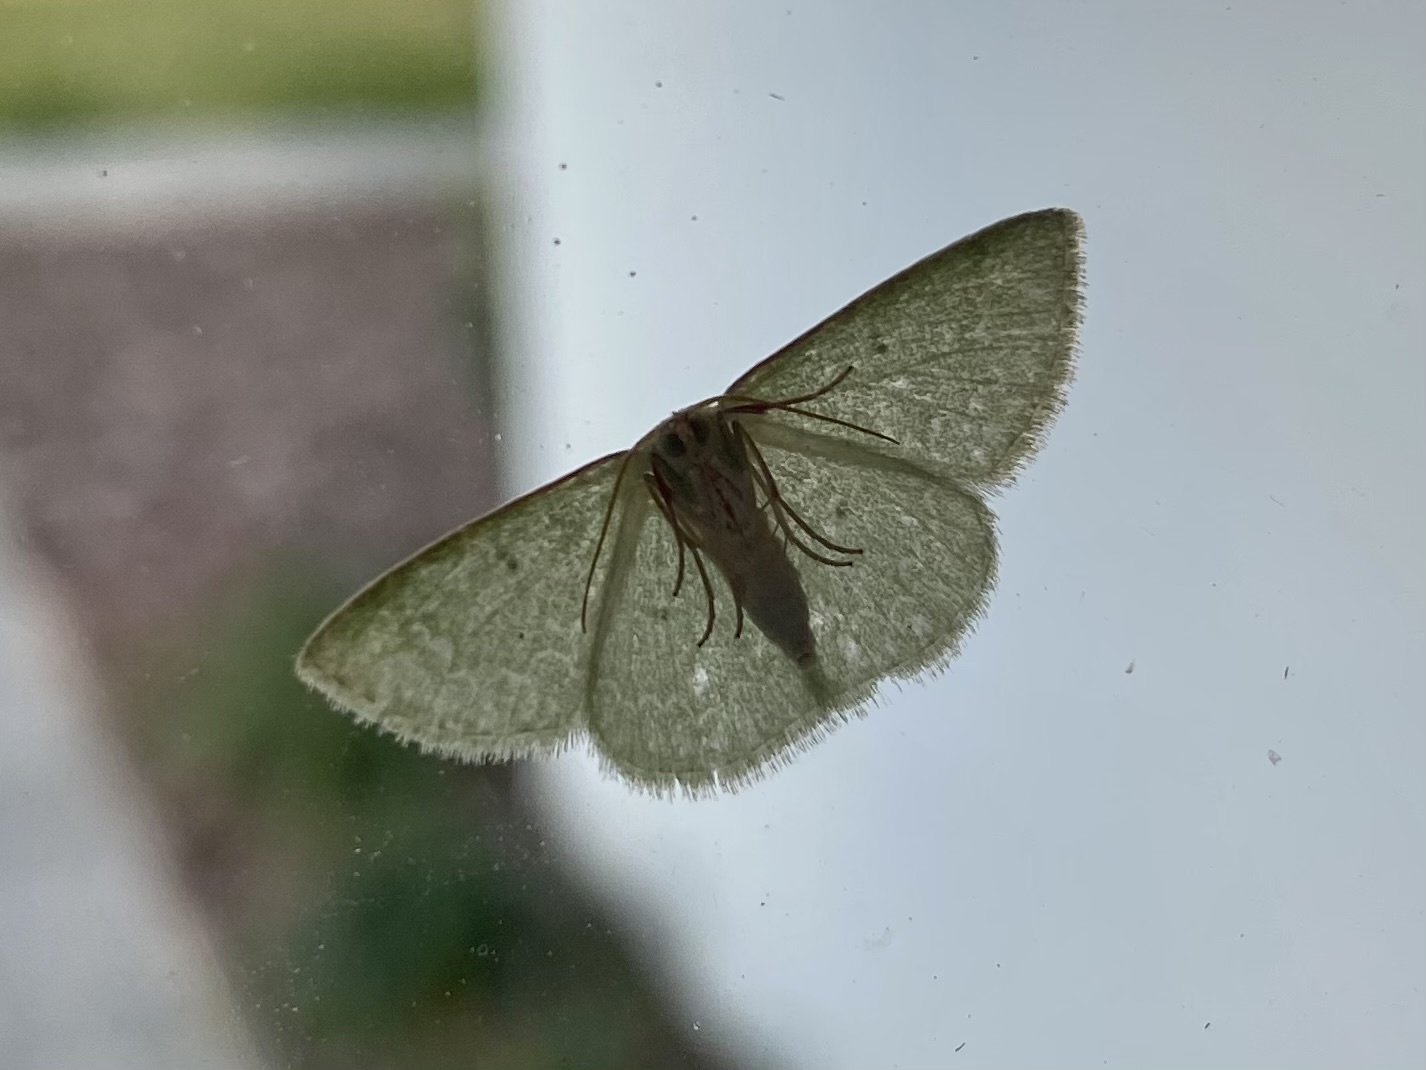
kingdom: Animalia
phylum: Arthropoda
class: Insecta
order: Lepidoptera
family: Geometridae
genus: Synchlora
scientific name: Synchlora frondaria
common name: Southern emerald
